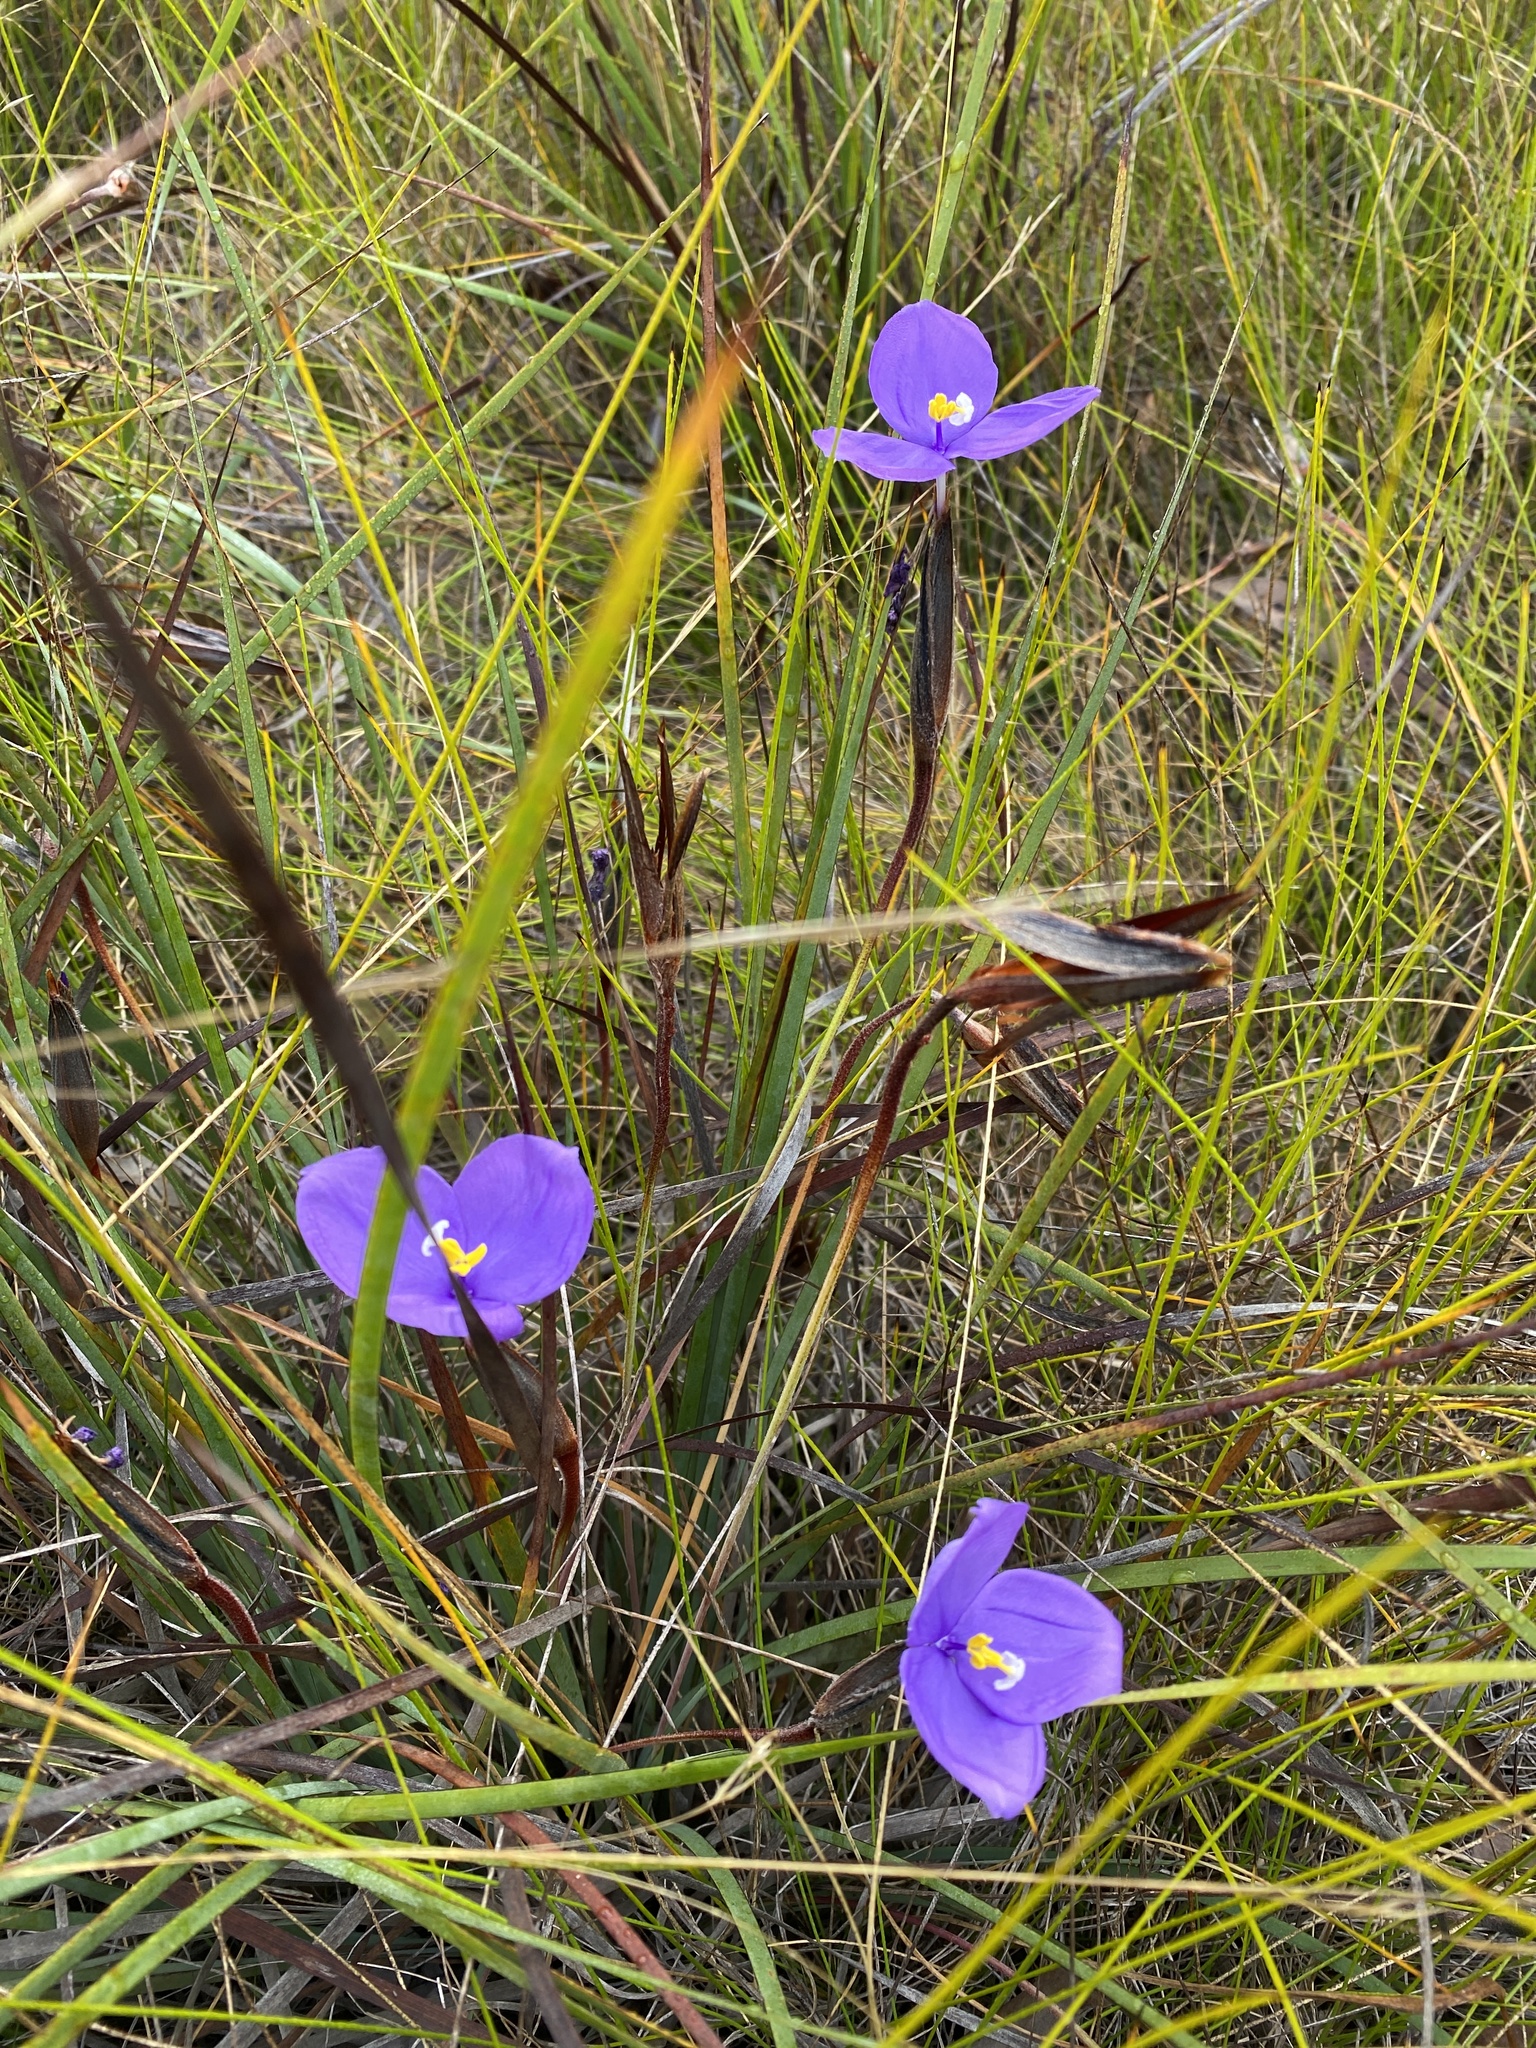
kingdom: Plantae
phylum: Tracheophyta
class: Liliopsida
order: Asparagales
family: Iridaceae
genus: Patersonia
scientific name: Patersonia sericea
